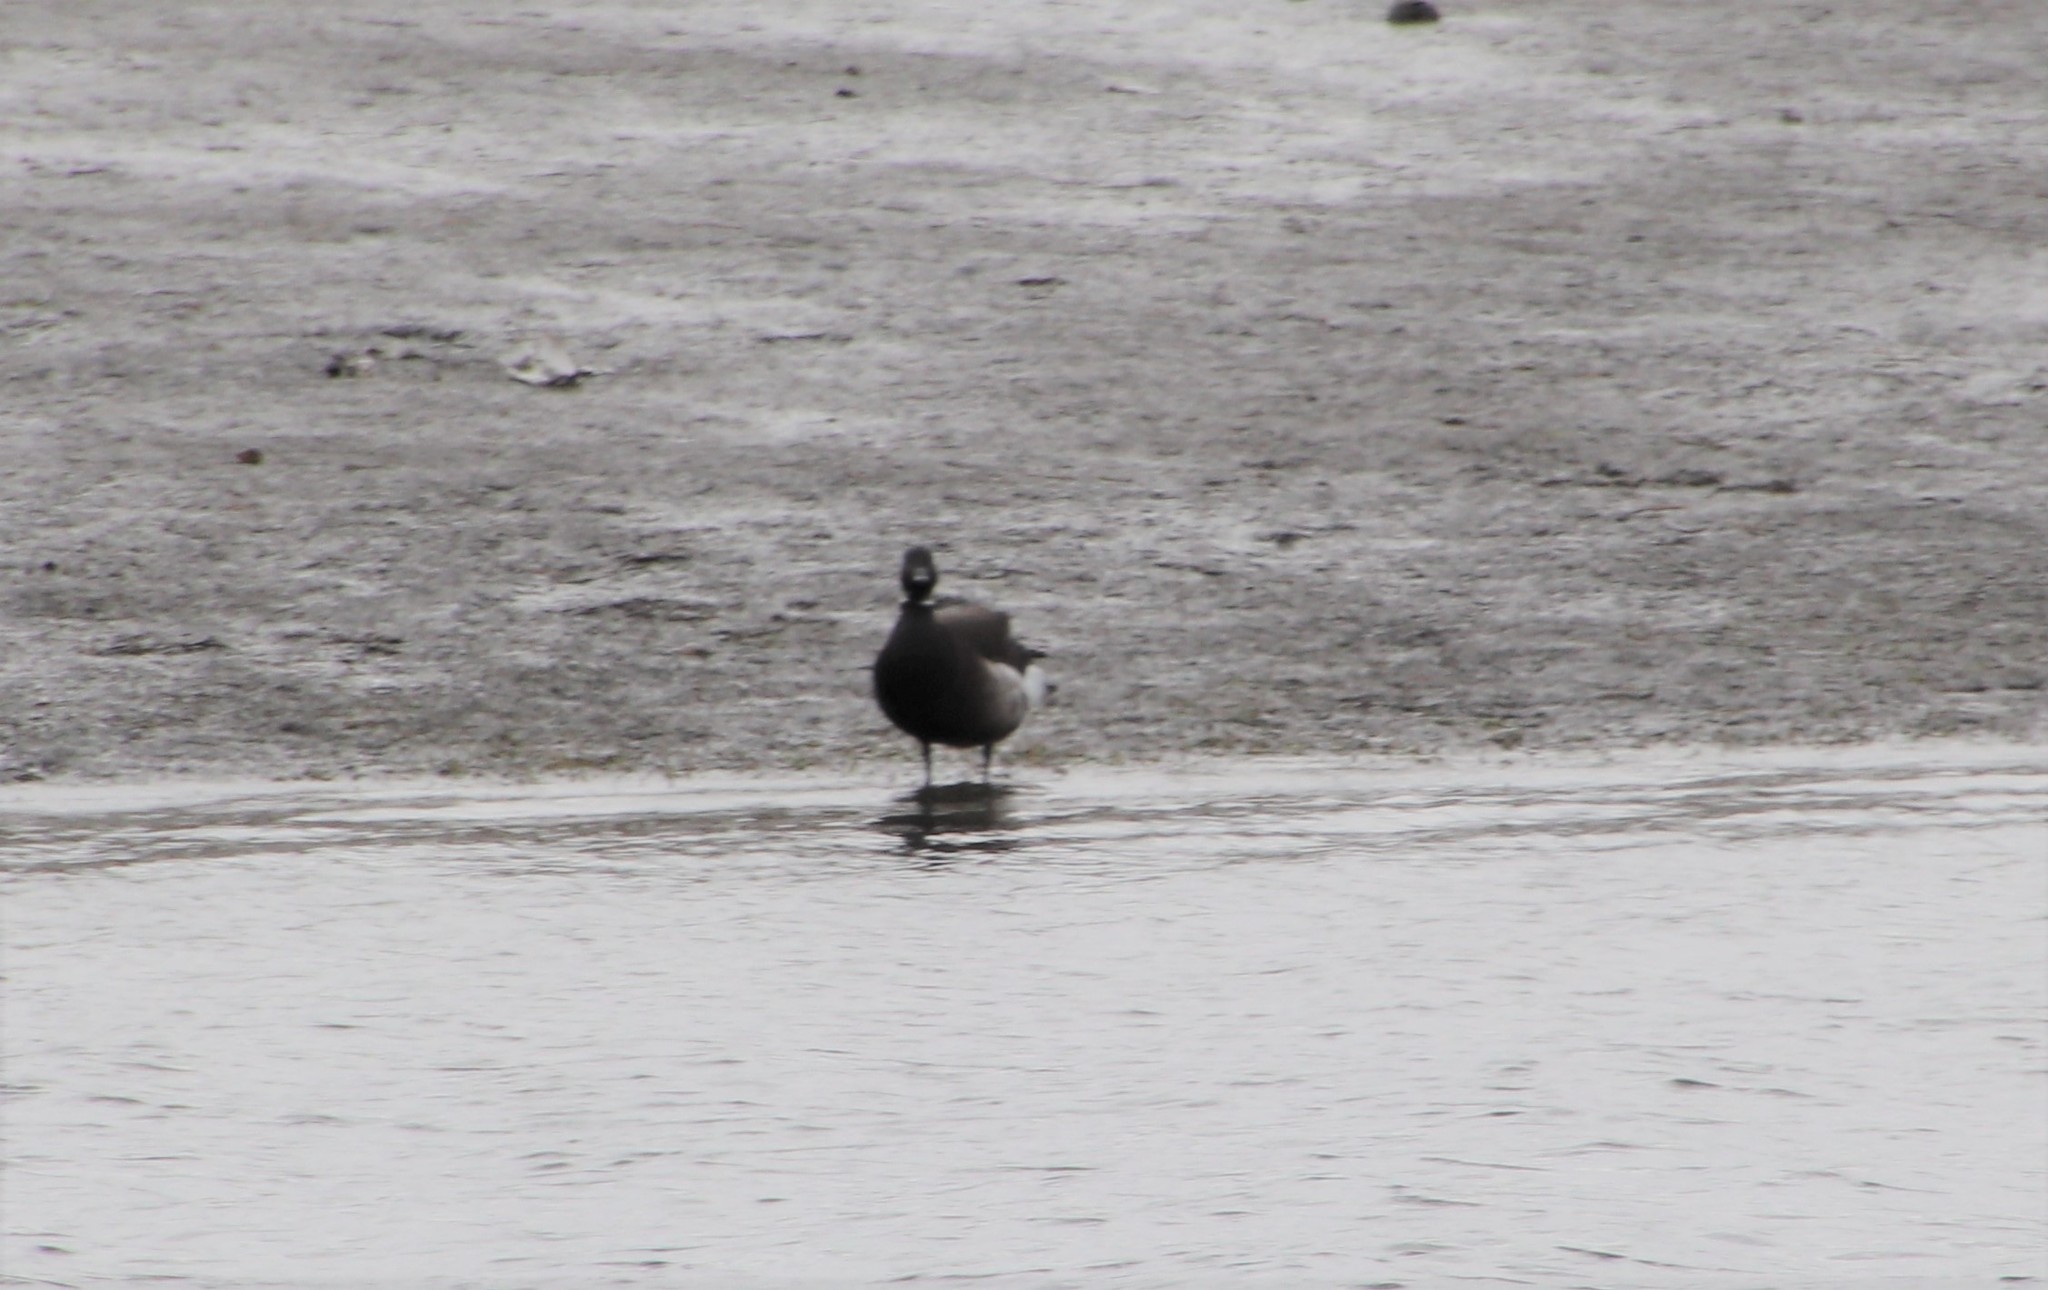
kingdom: Animalia
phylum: Chordata
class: Aves
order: Anseriformes
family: Anatidae
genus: Branta
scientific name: Branta bernicla
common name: Brant goose
